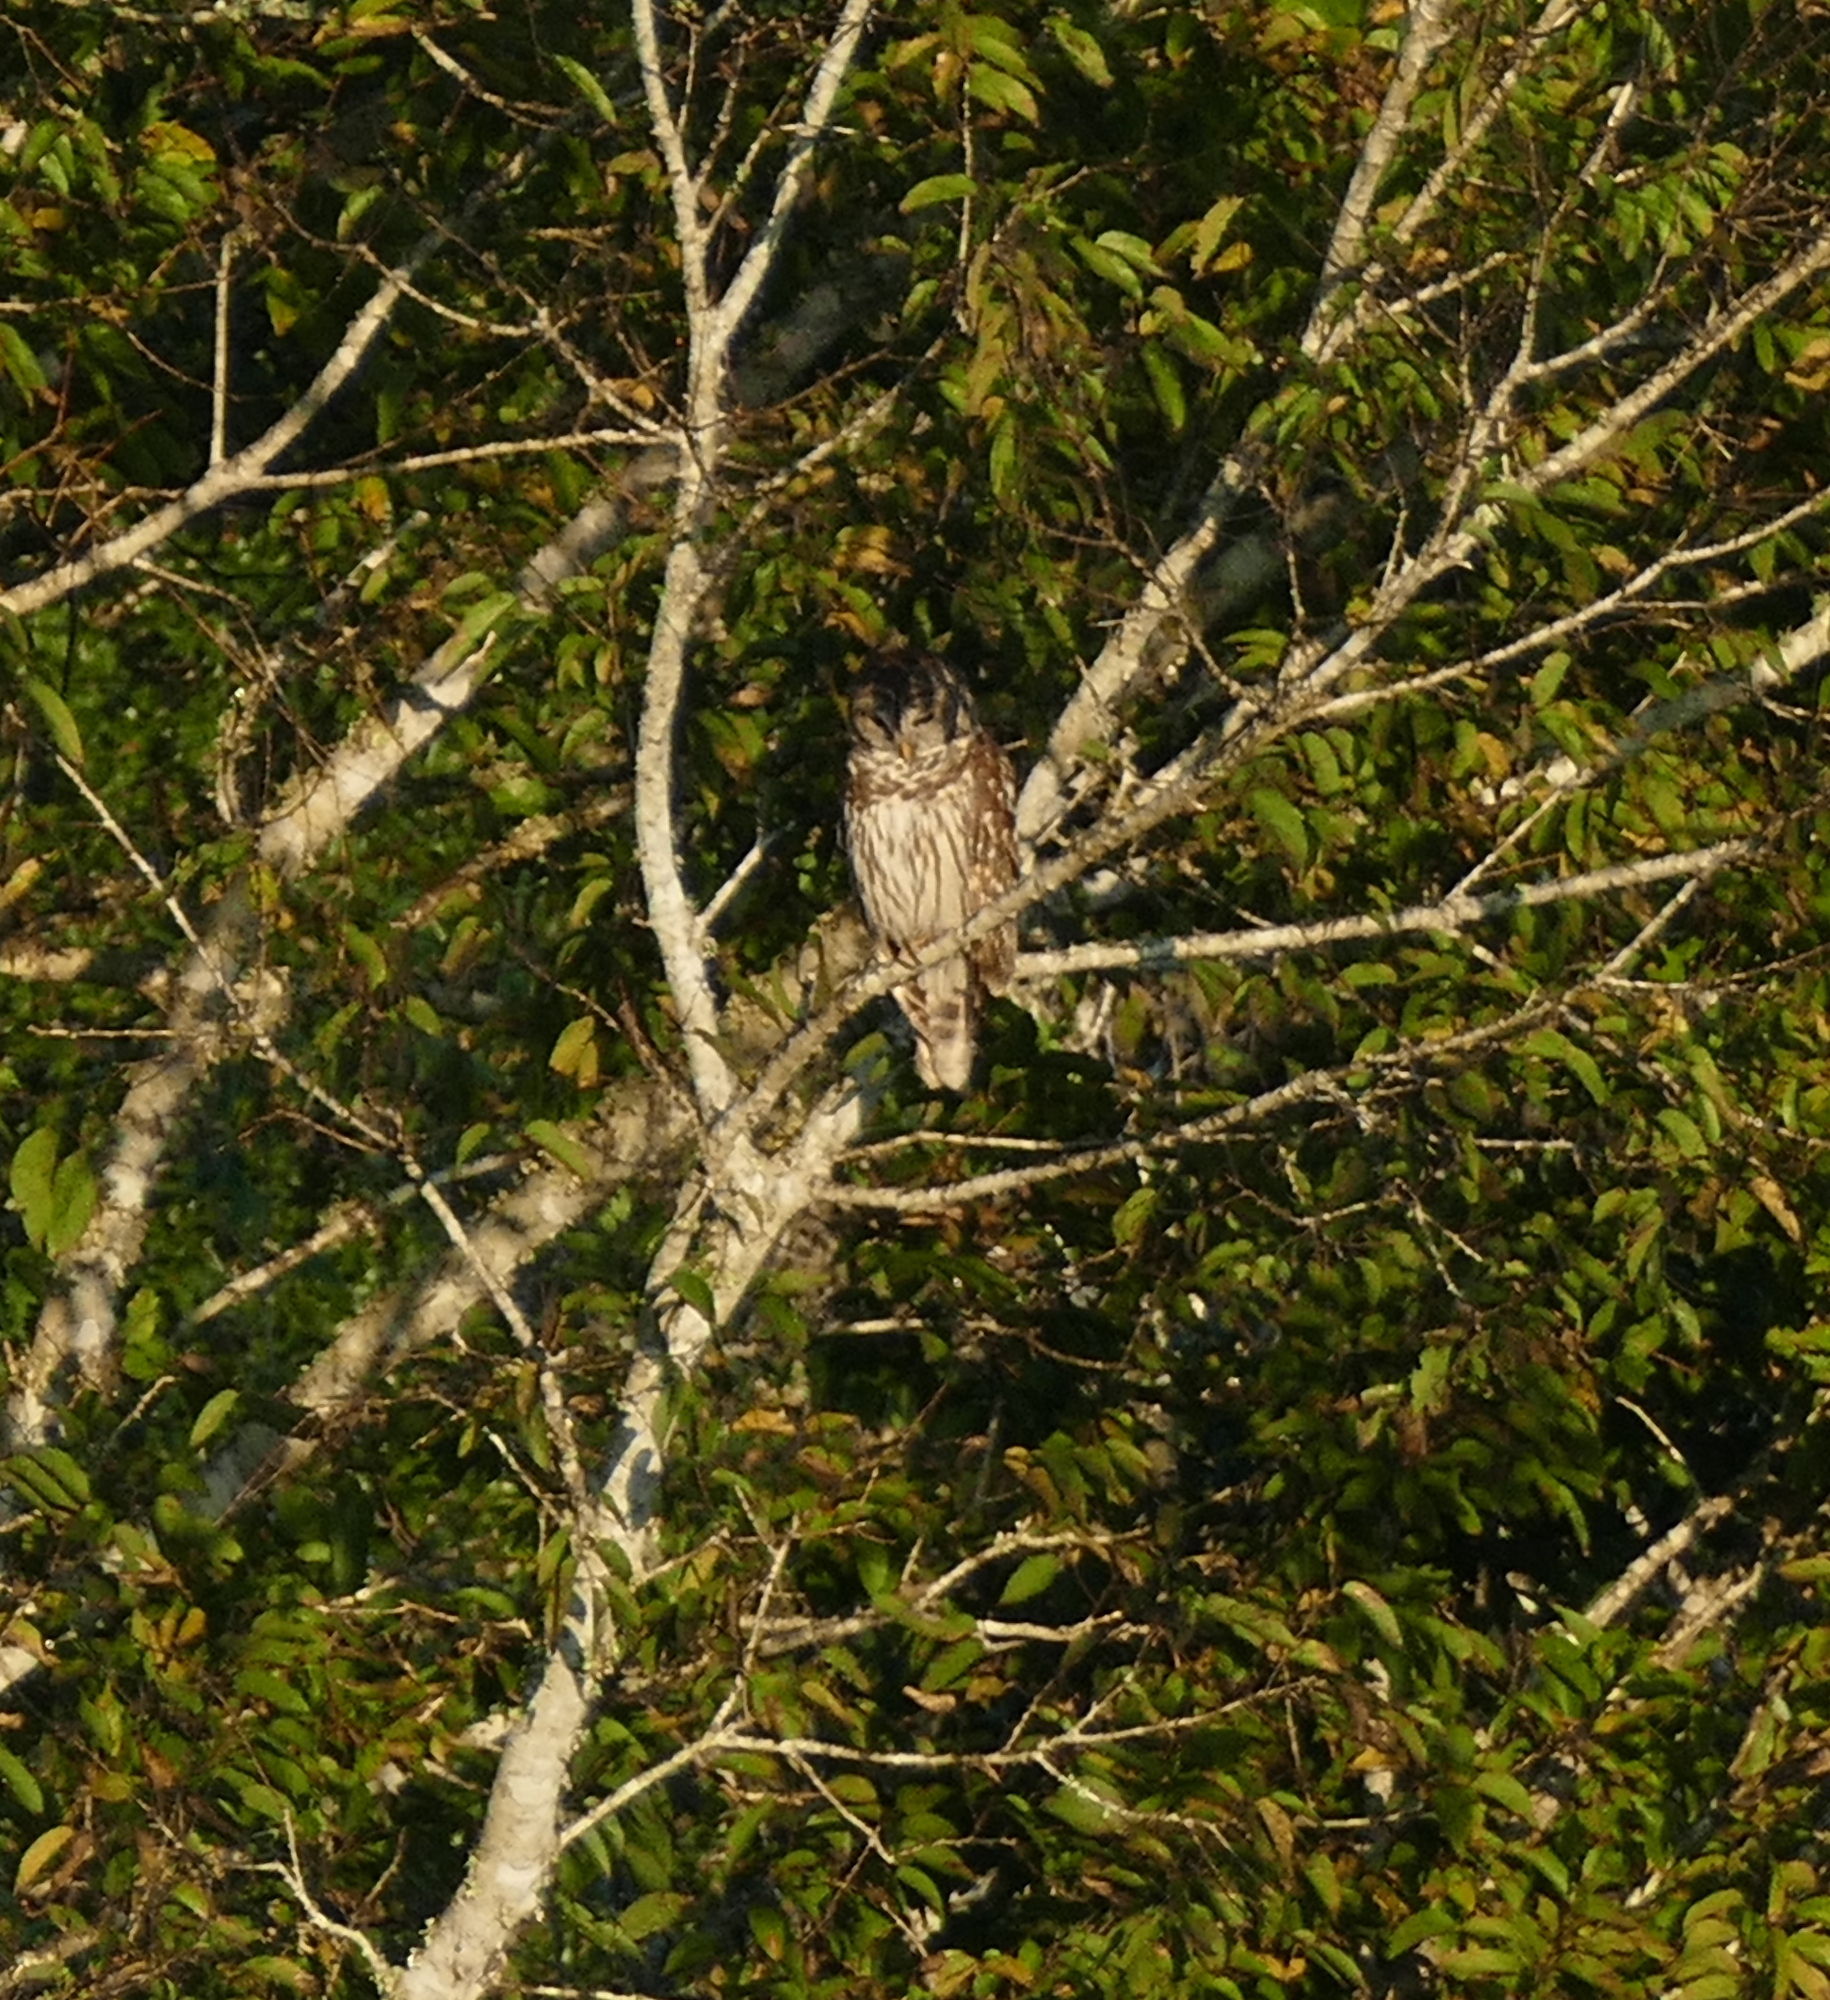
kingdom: Animalia
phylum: Chordata
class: Aves
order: Strigiformes
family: Strigidae
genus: Strix
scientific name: Strix varia
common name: Barred owl
